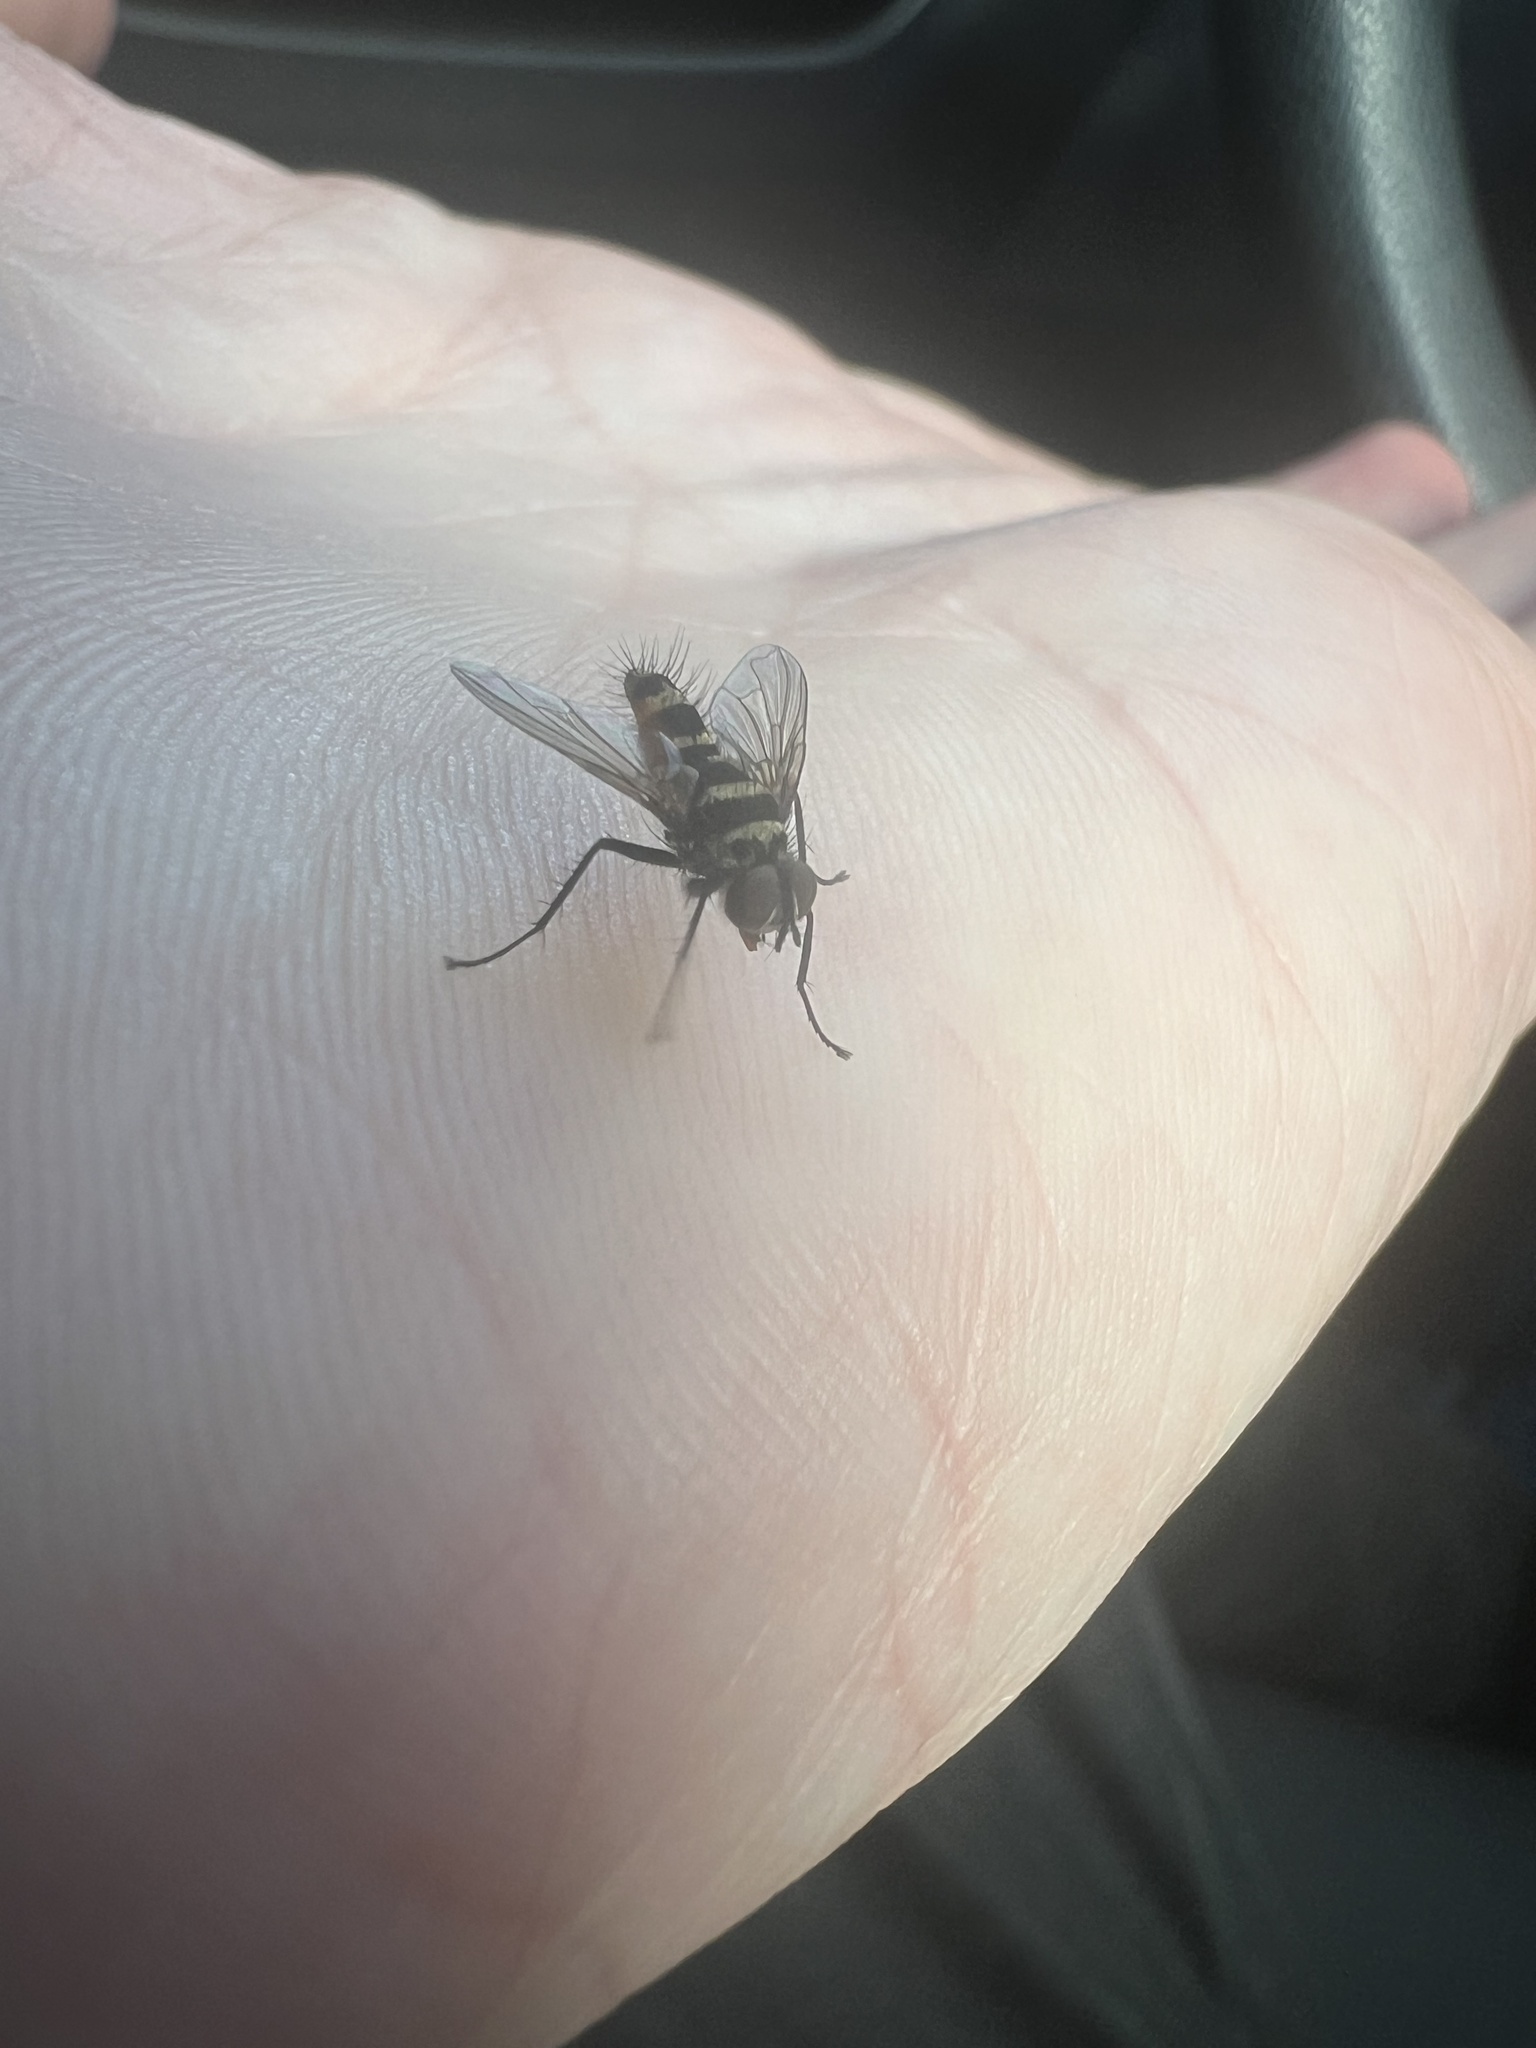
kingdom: Animalia
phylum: Arthropoda
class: Insecta
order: Diptera
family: Tachinidae
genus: Trigonospila
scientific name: Trigonospila brevifacies
